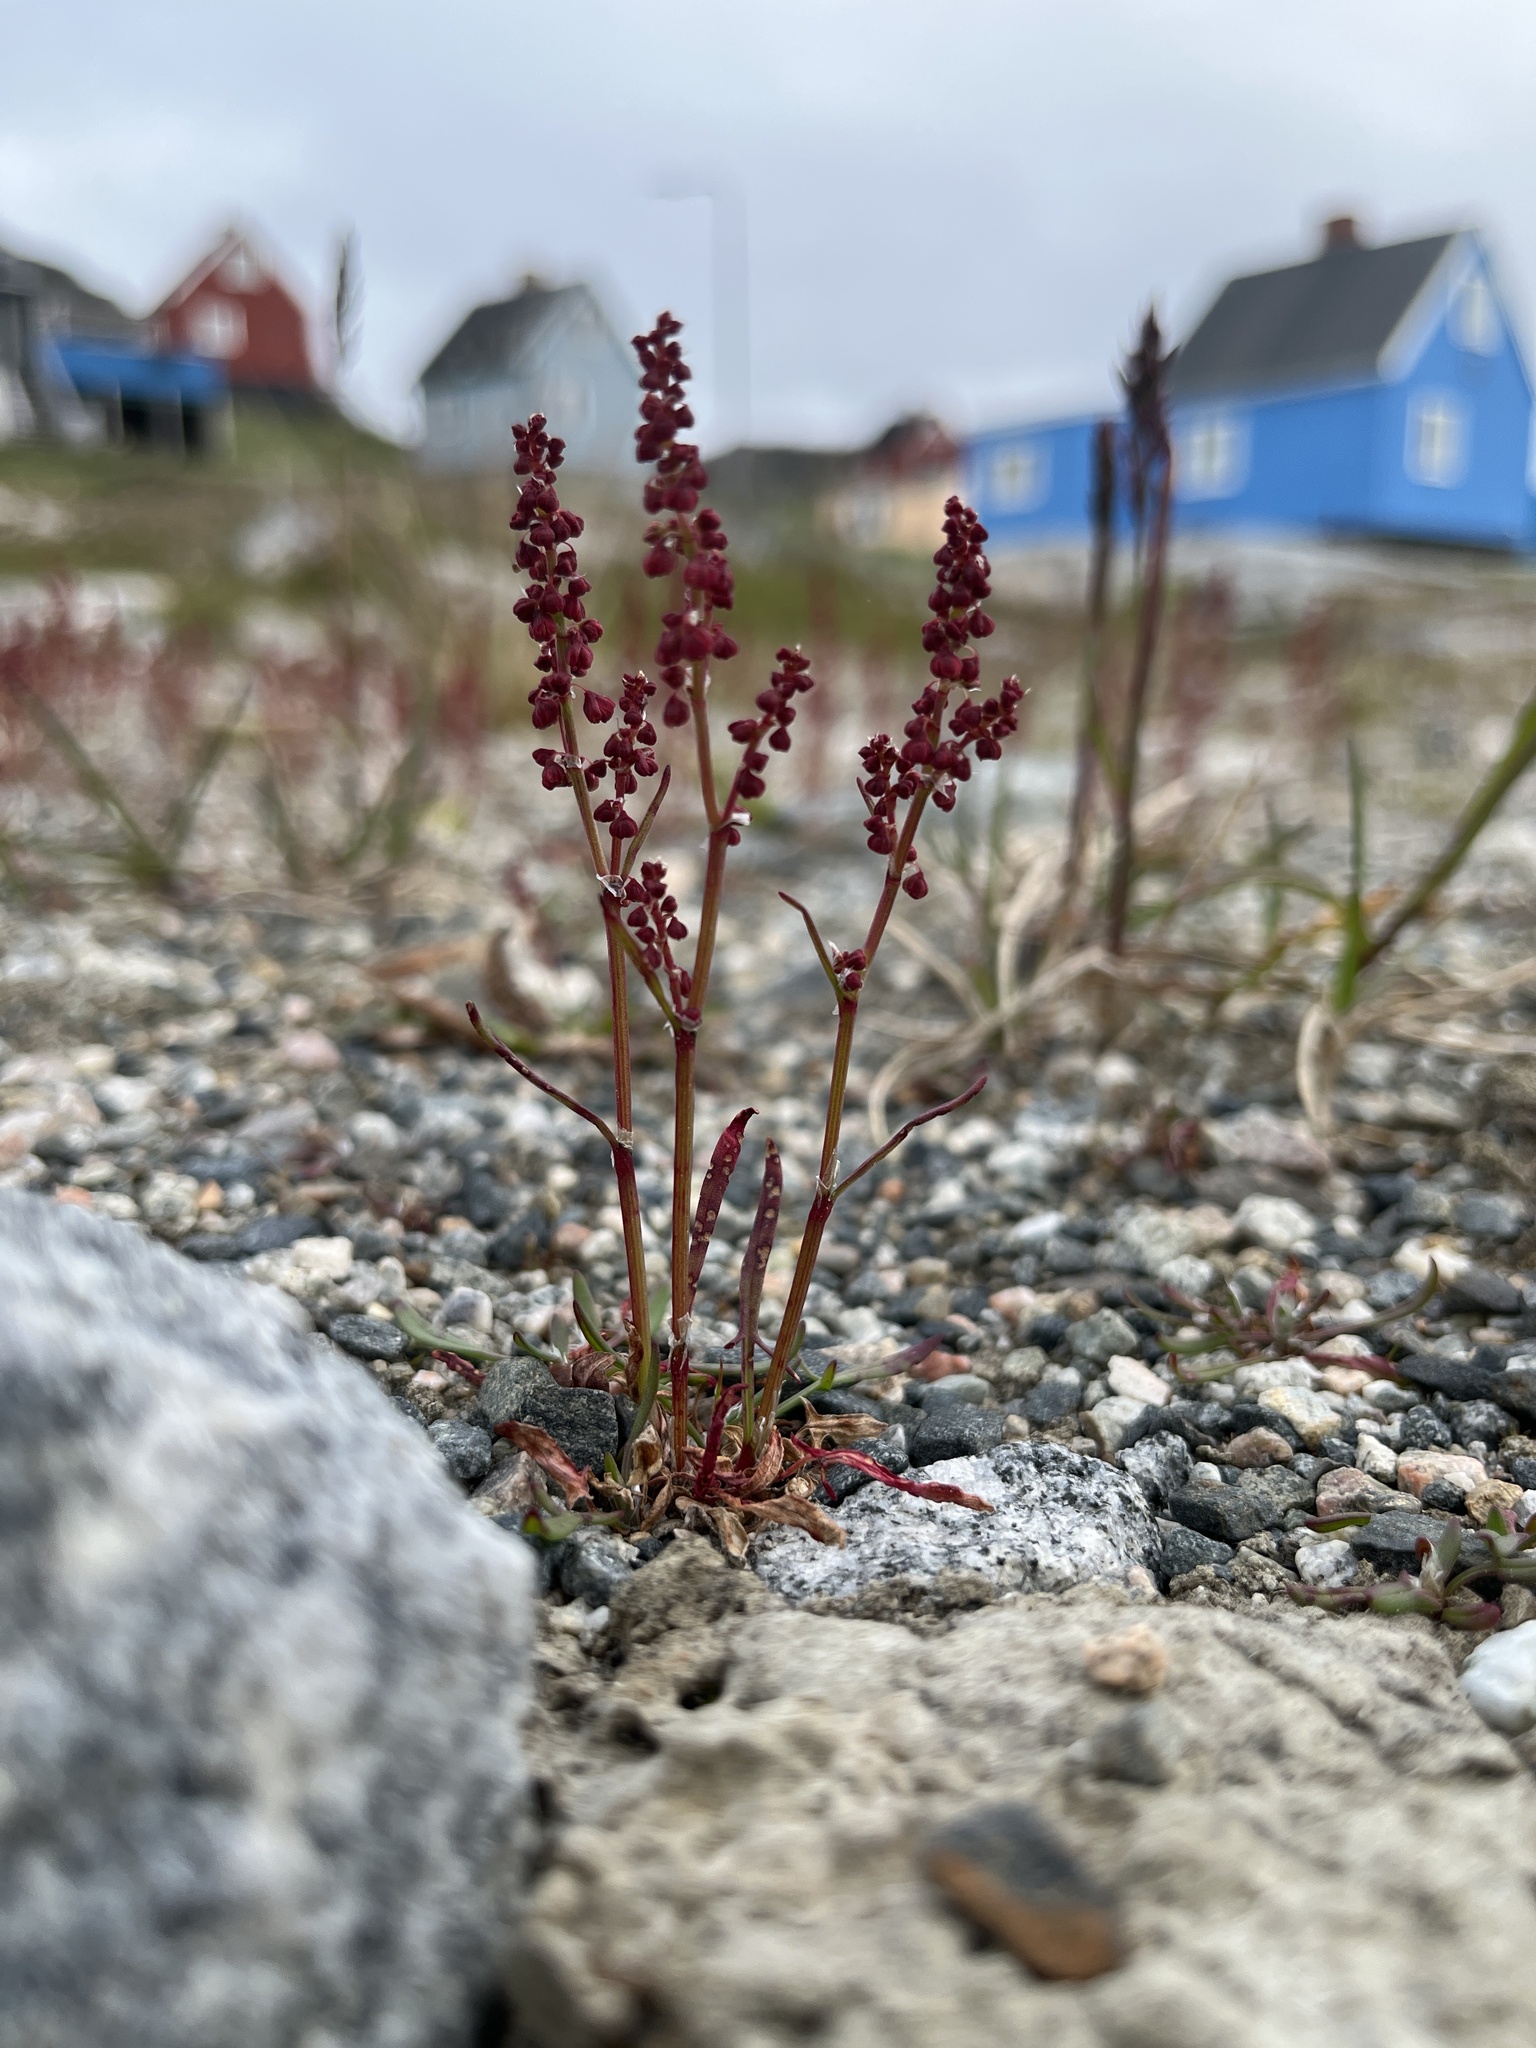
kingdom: Plantae
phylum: Tracheophyta
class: Magnoliopsida
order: Caryophyllales
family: Polygonaceae
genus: Rumex
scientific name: Rumex acetosella
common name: Common sheep sorrel
